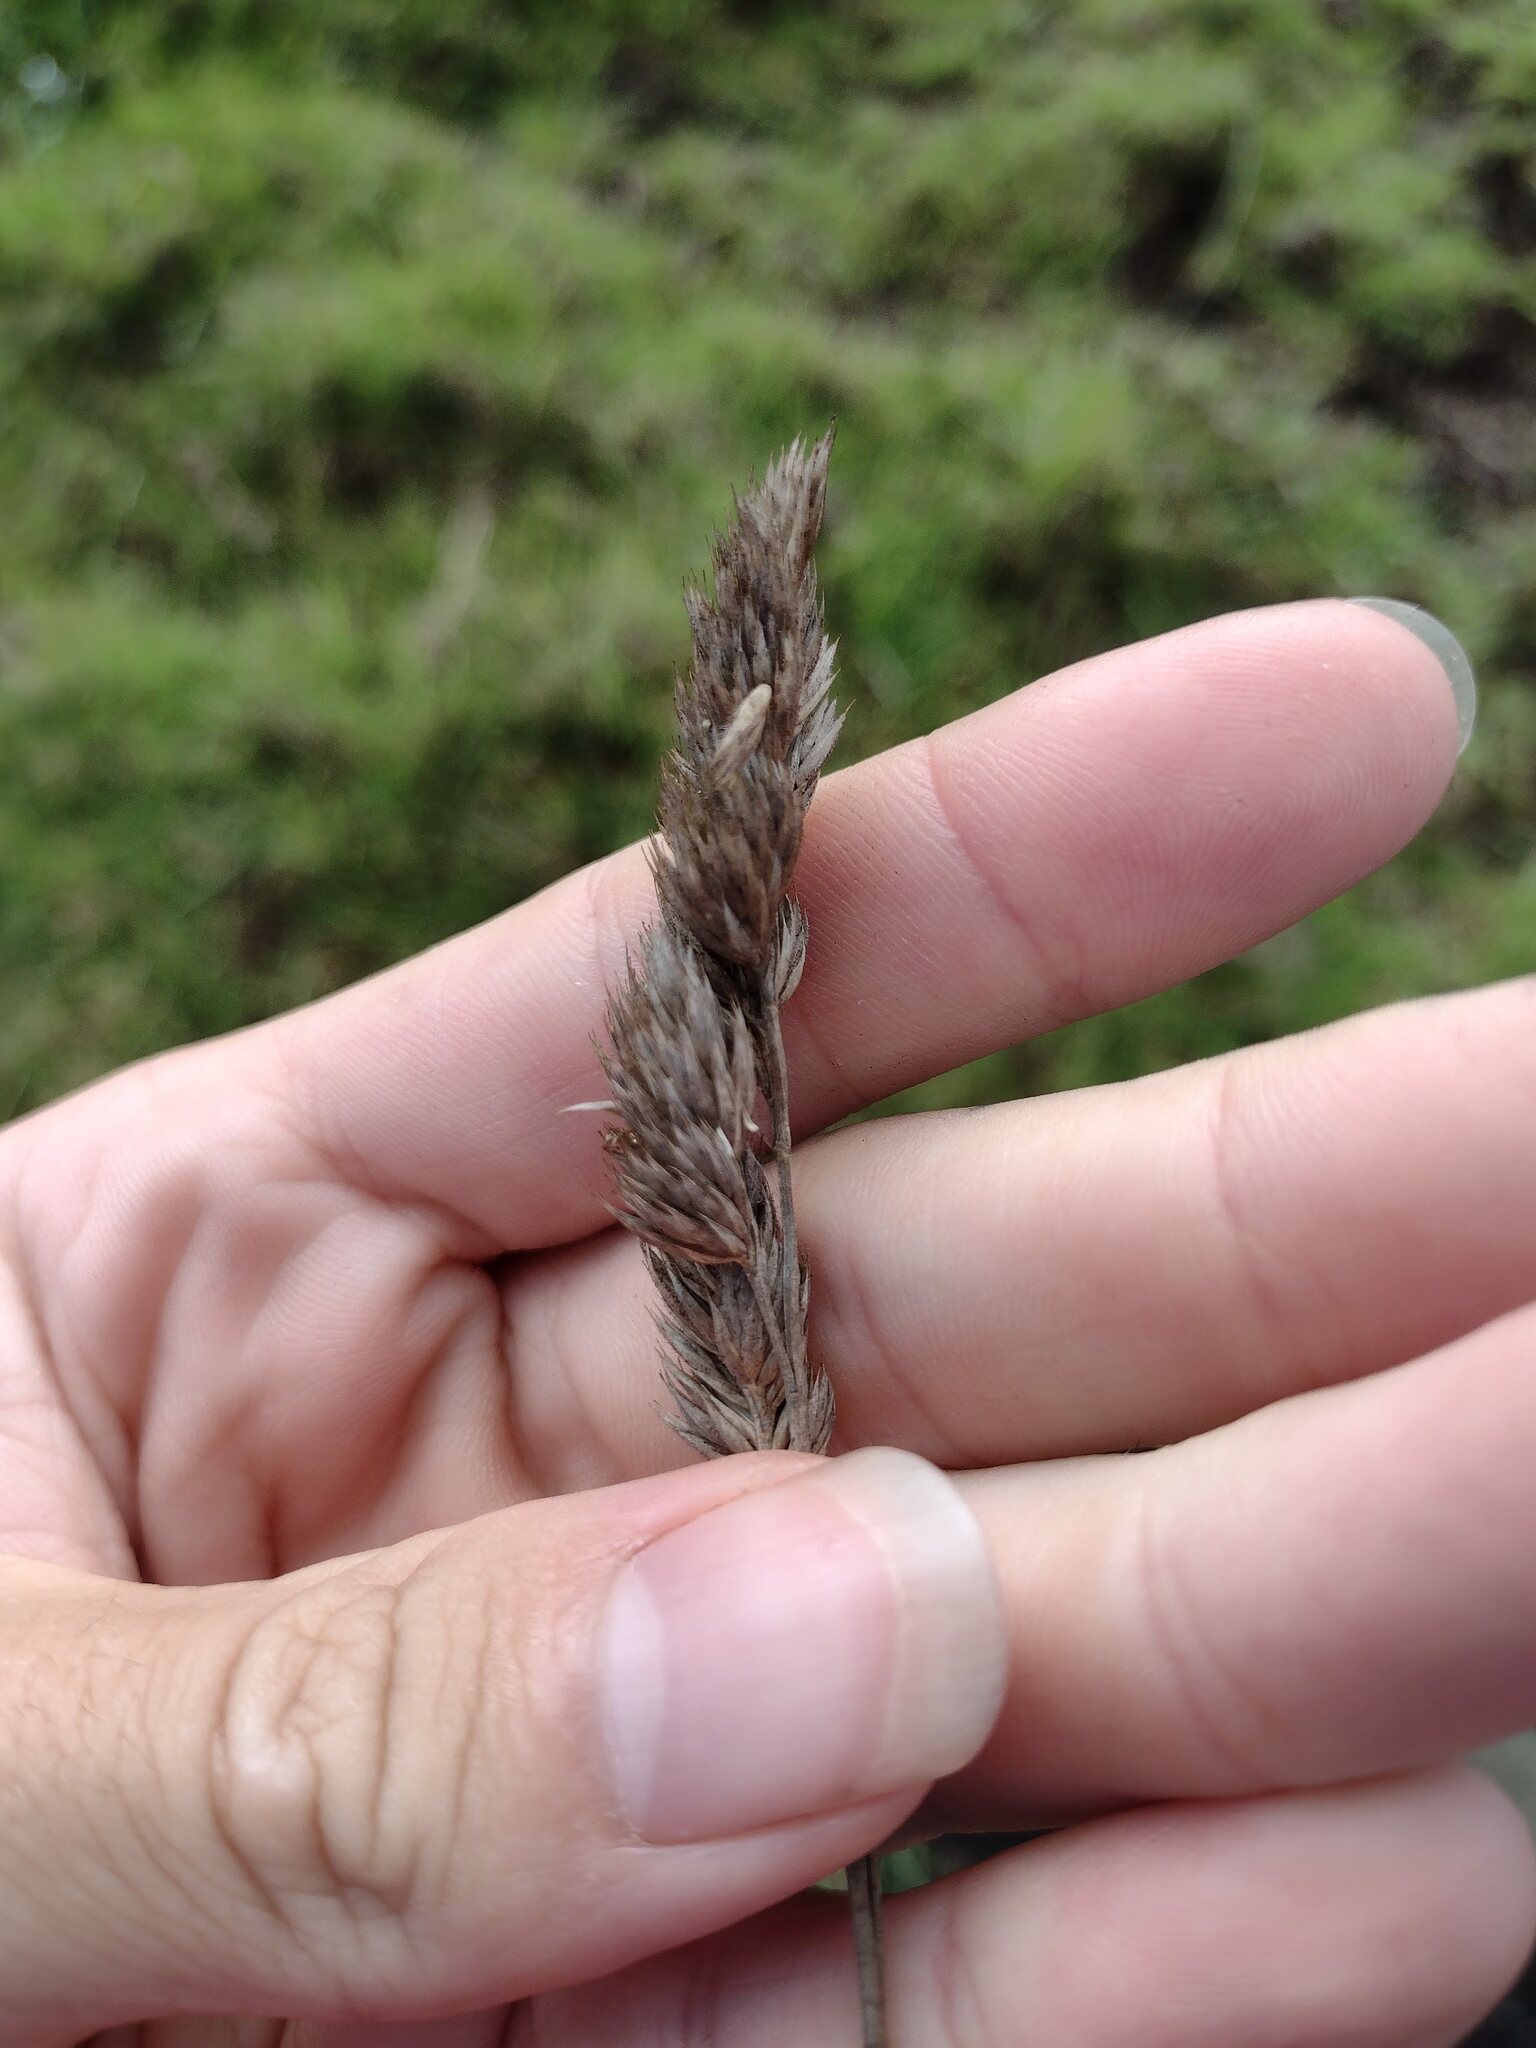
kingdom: Plantae
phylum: Tracheophyta
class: Liliopsida
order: Poales
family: Poaceae
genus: Dactylis
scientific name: Dactylis glomerata
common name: Orchardgrass
